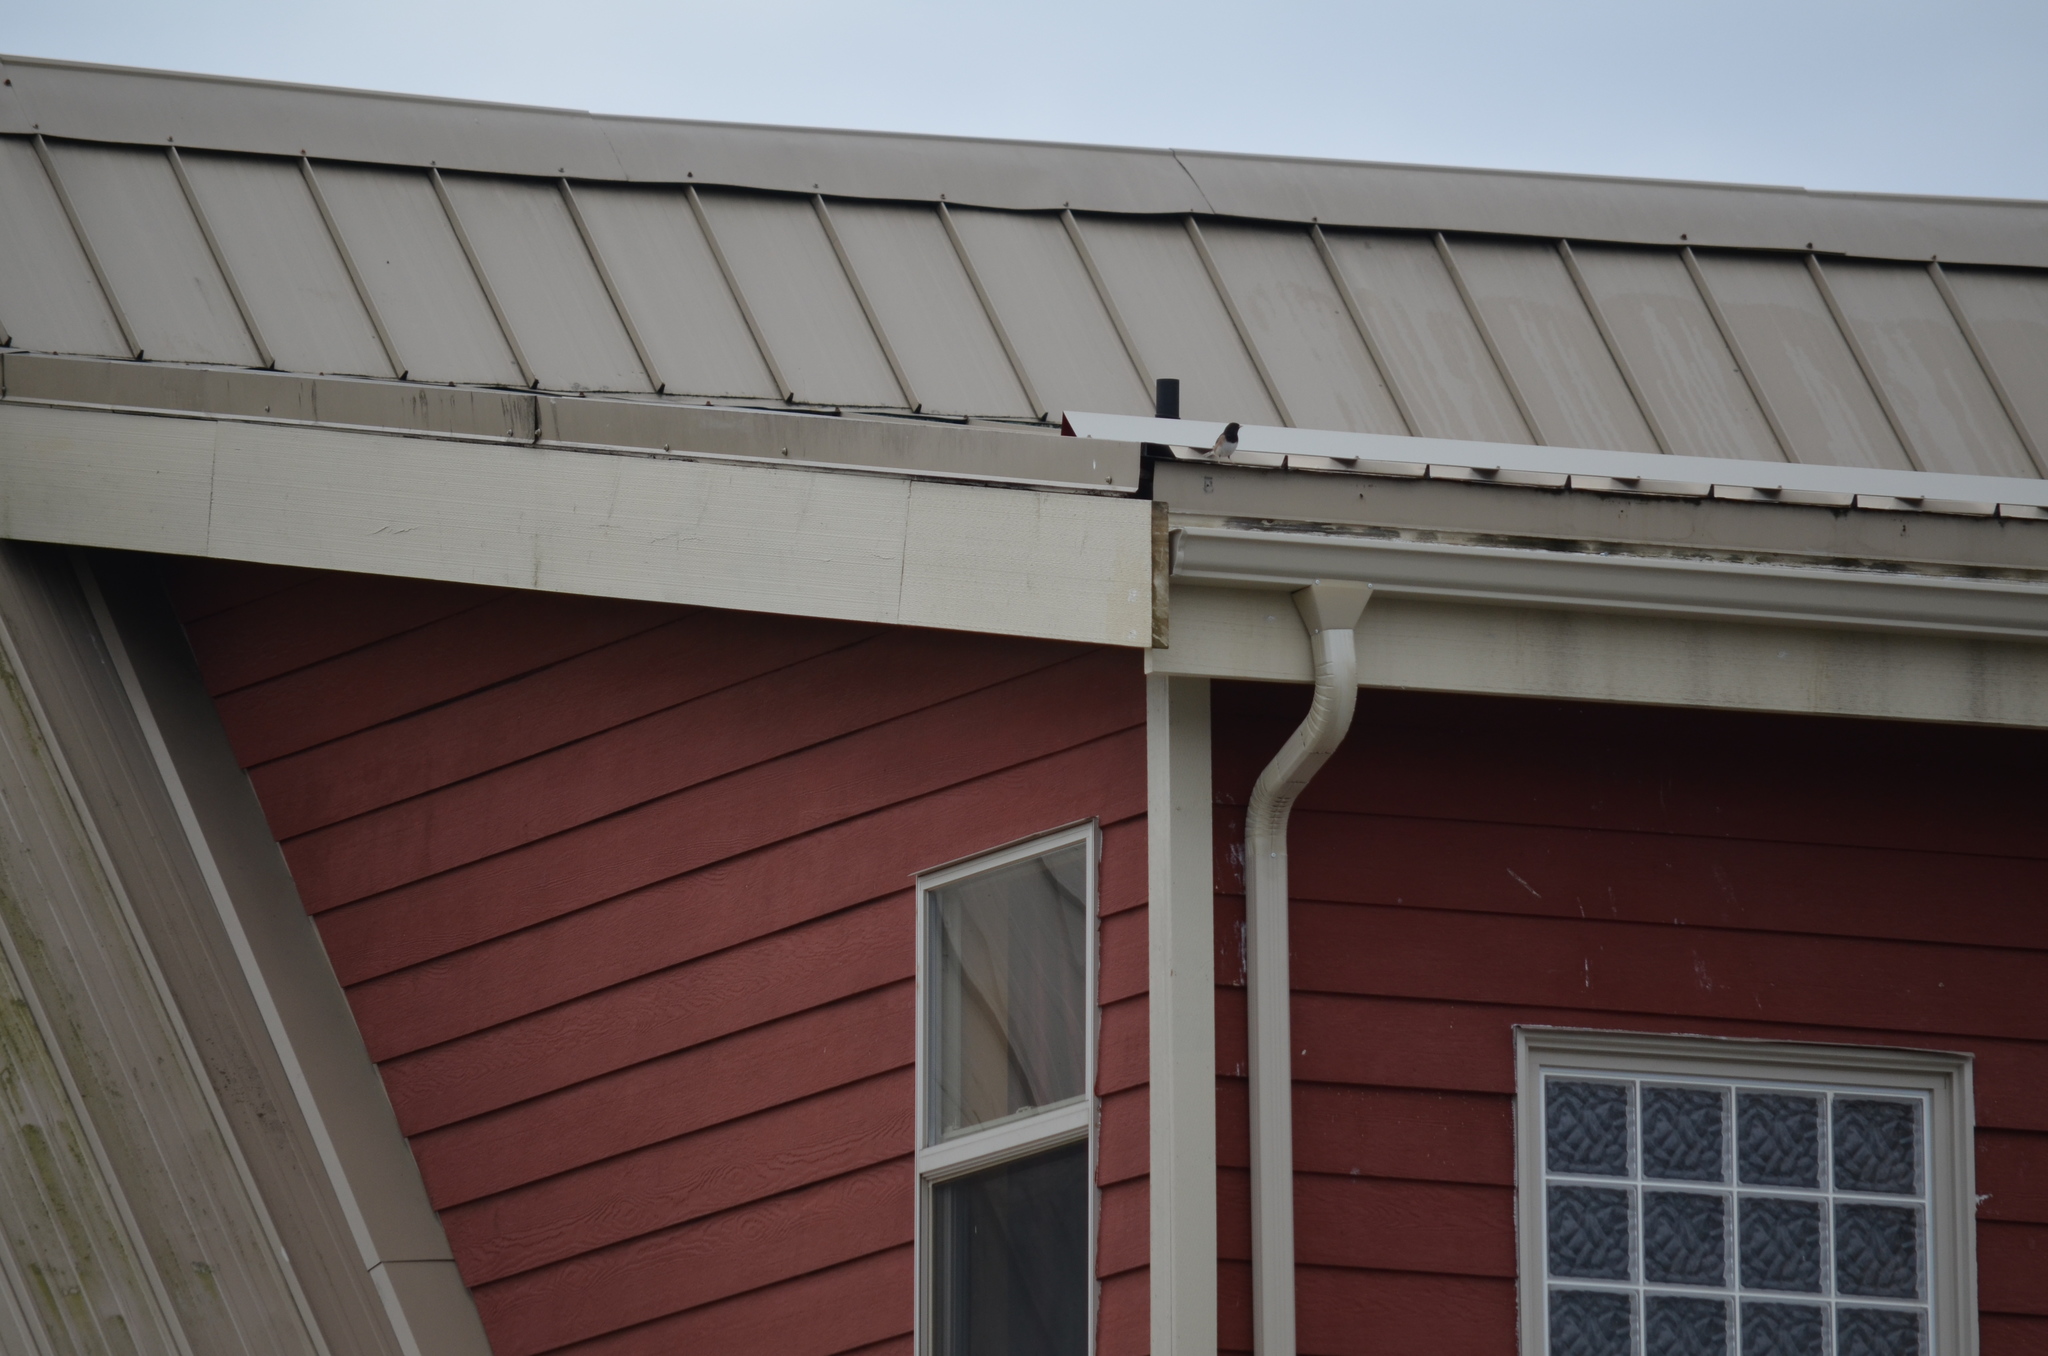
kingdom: Animalia
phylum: Chordata
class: Aves
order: Passeriformes
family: Passerellidae
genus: Junco
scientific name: Junco hyemalis
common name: Dark-eyed junco
